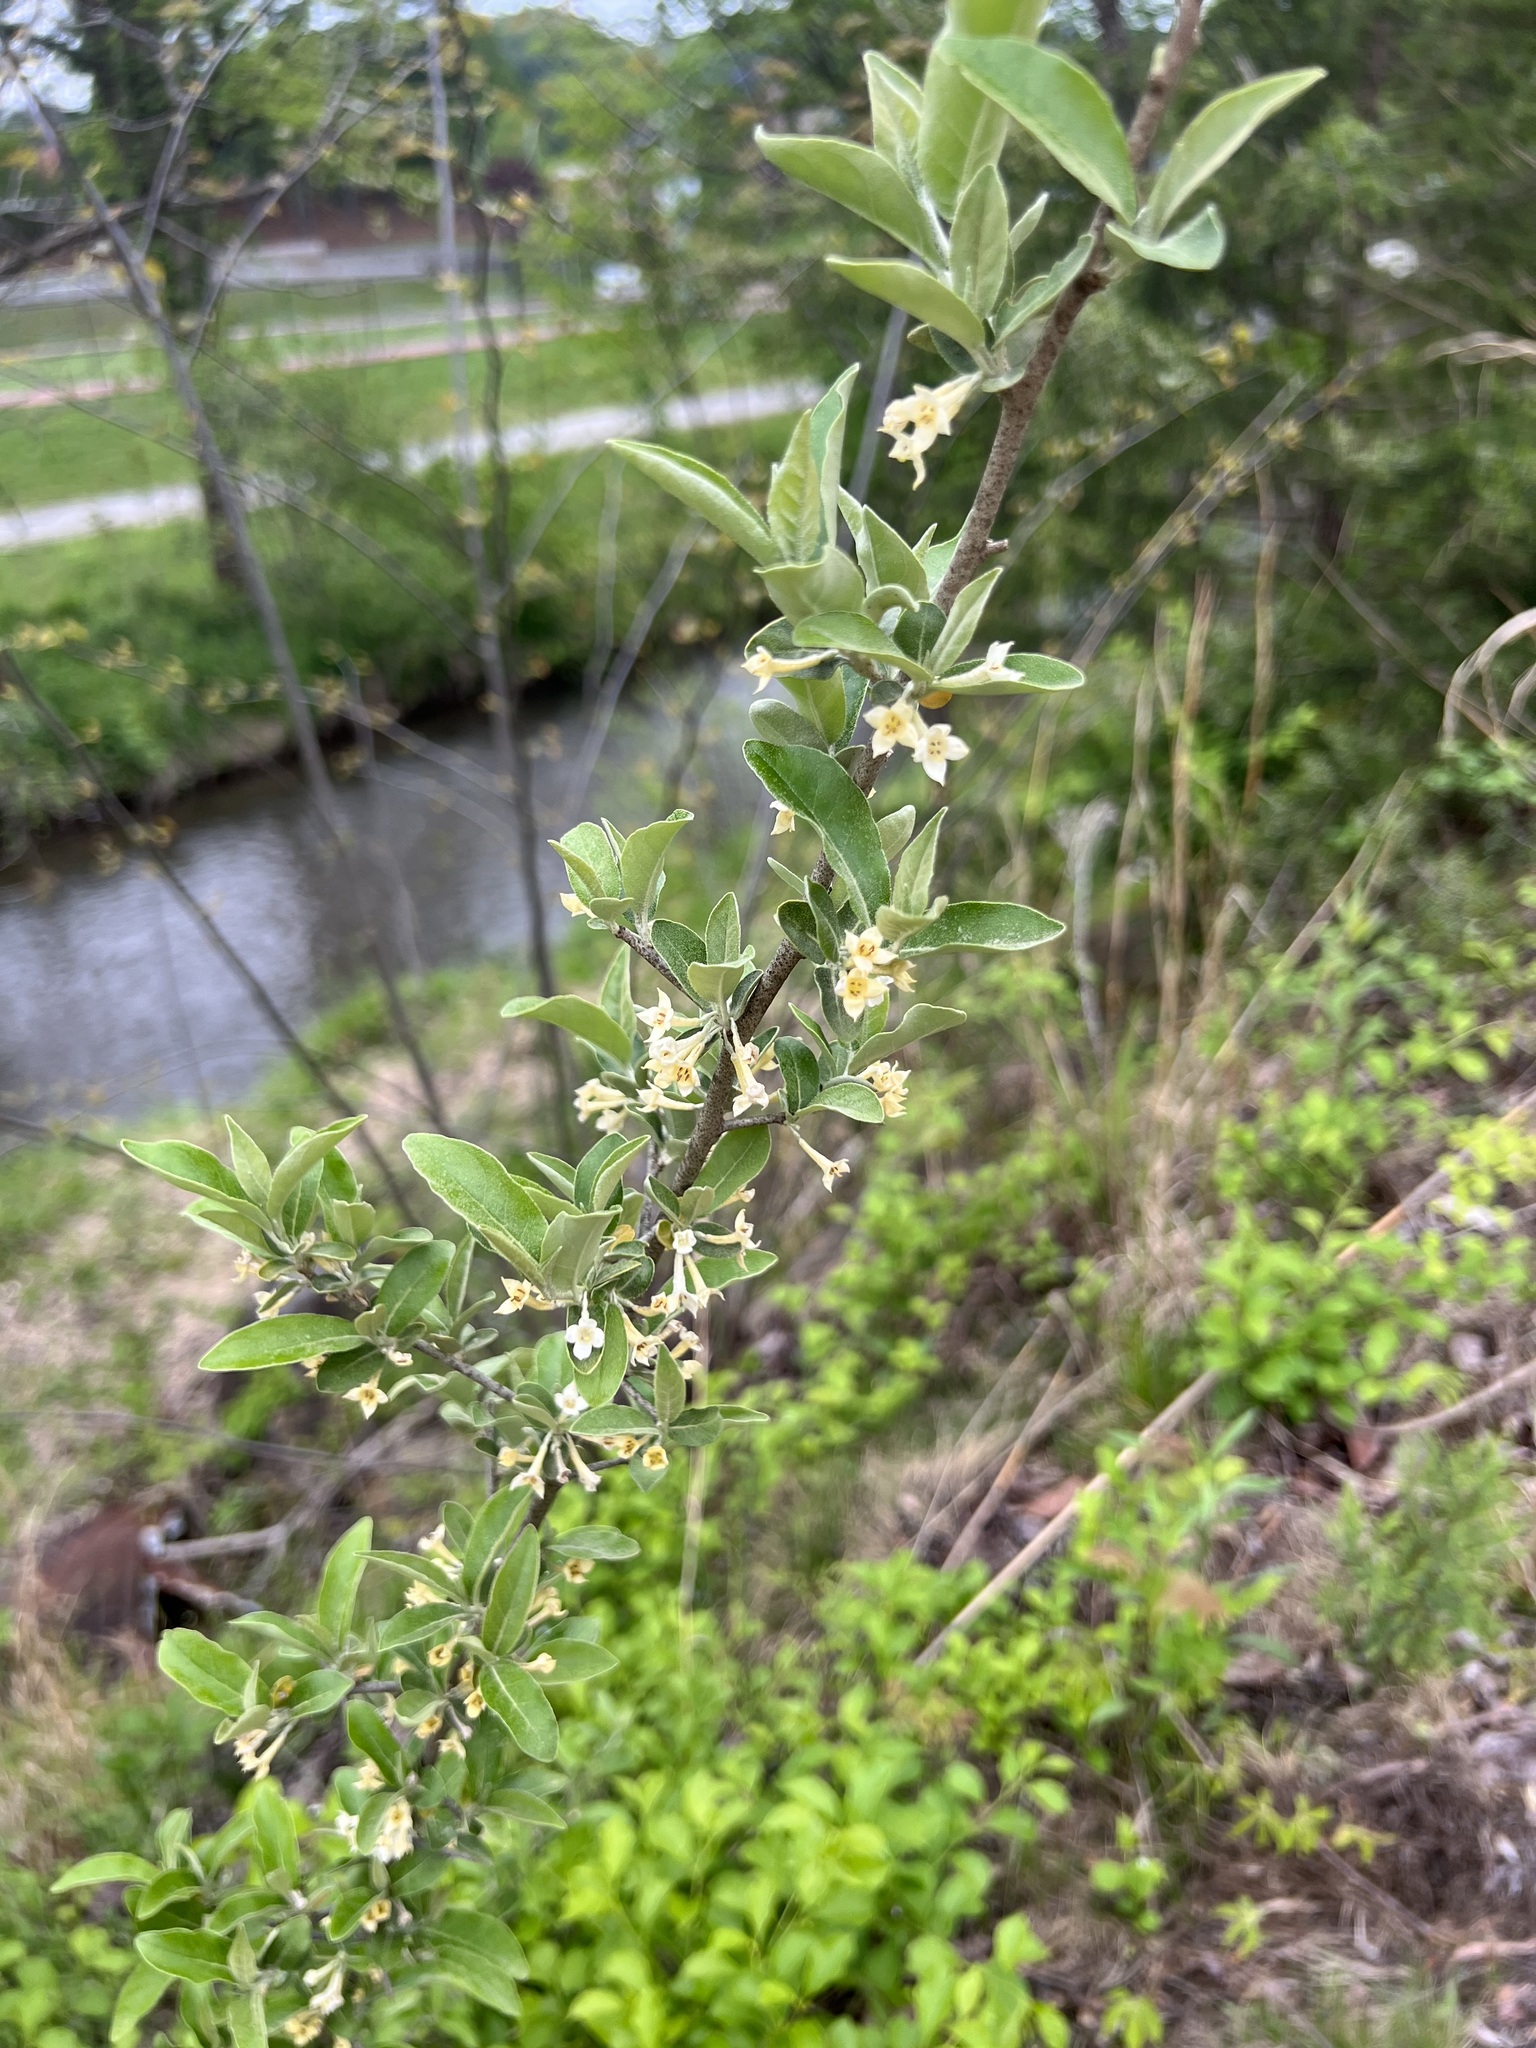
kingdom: Plantae
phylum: Tracheophyta
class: Magnoliopsida
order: Rosales
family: Elaeagnaceae
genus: Elaeagnus
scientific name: Elaeagnus umbellata
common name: Autumn olive
